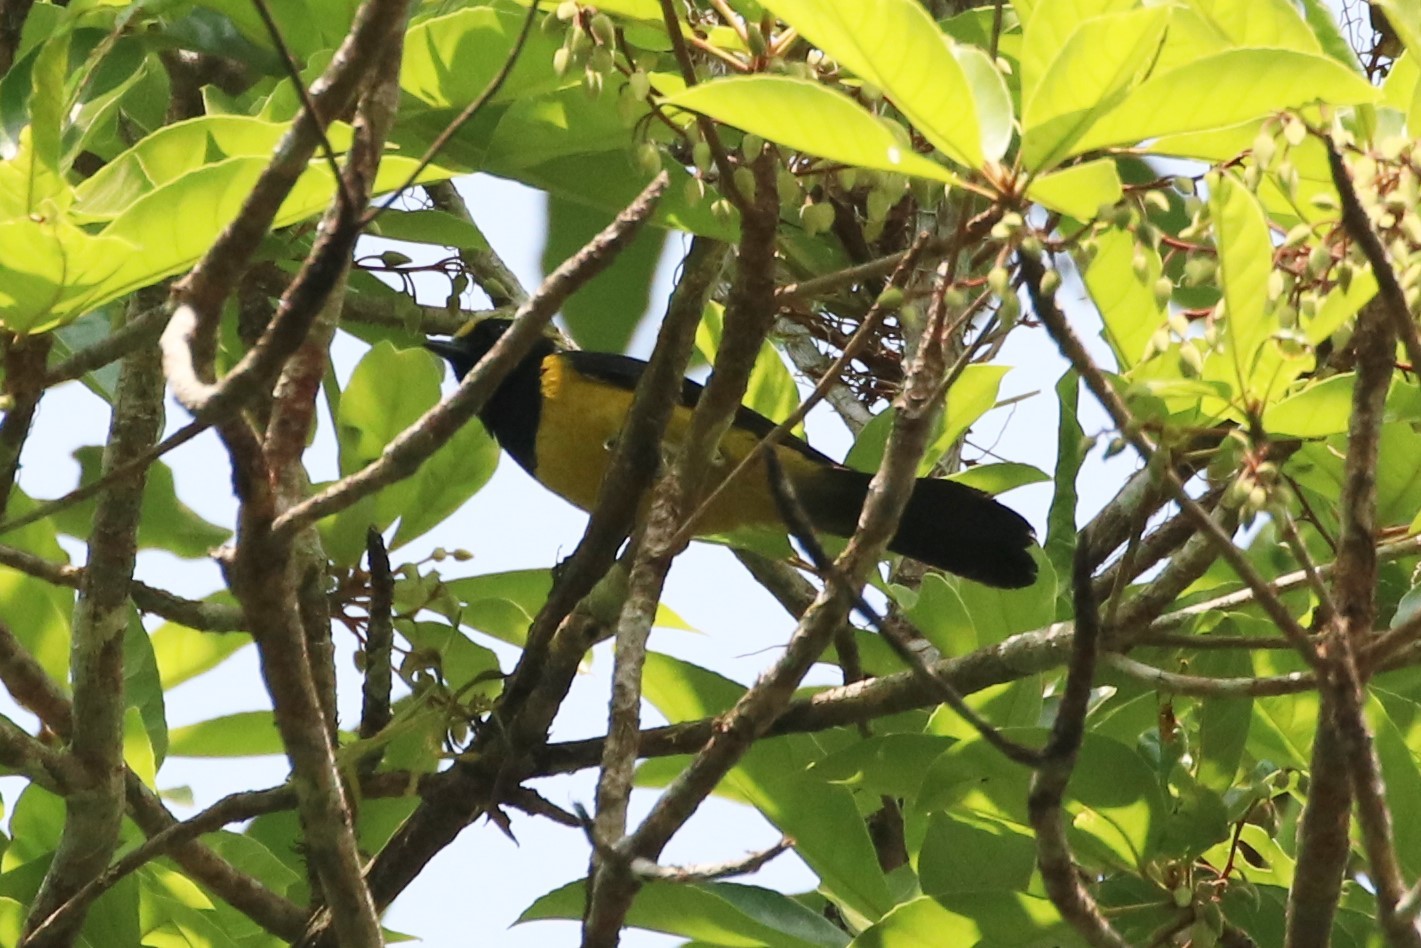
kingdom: Animalia
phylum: Chordata
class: Aves
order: Passeriformes
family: Paridae
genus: Melanochlora
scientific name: Melanochlora sultanea
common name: Sultan tit
